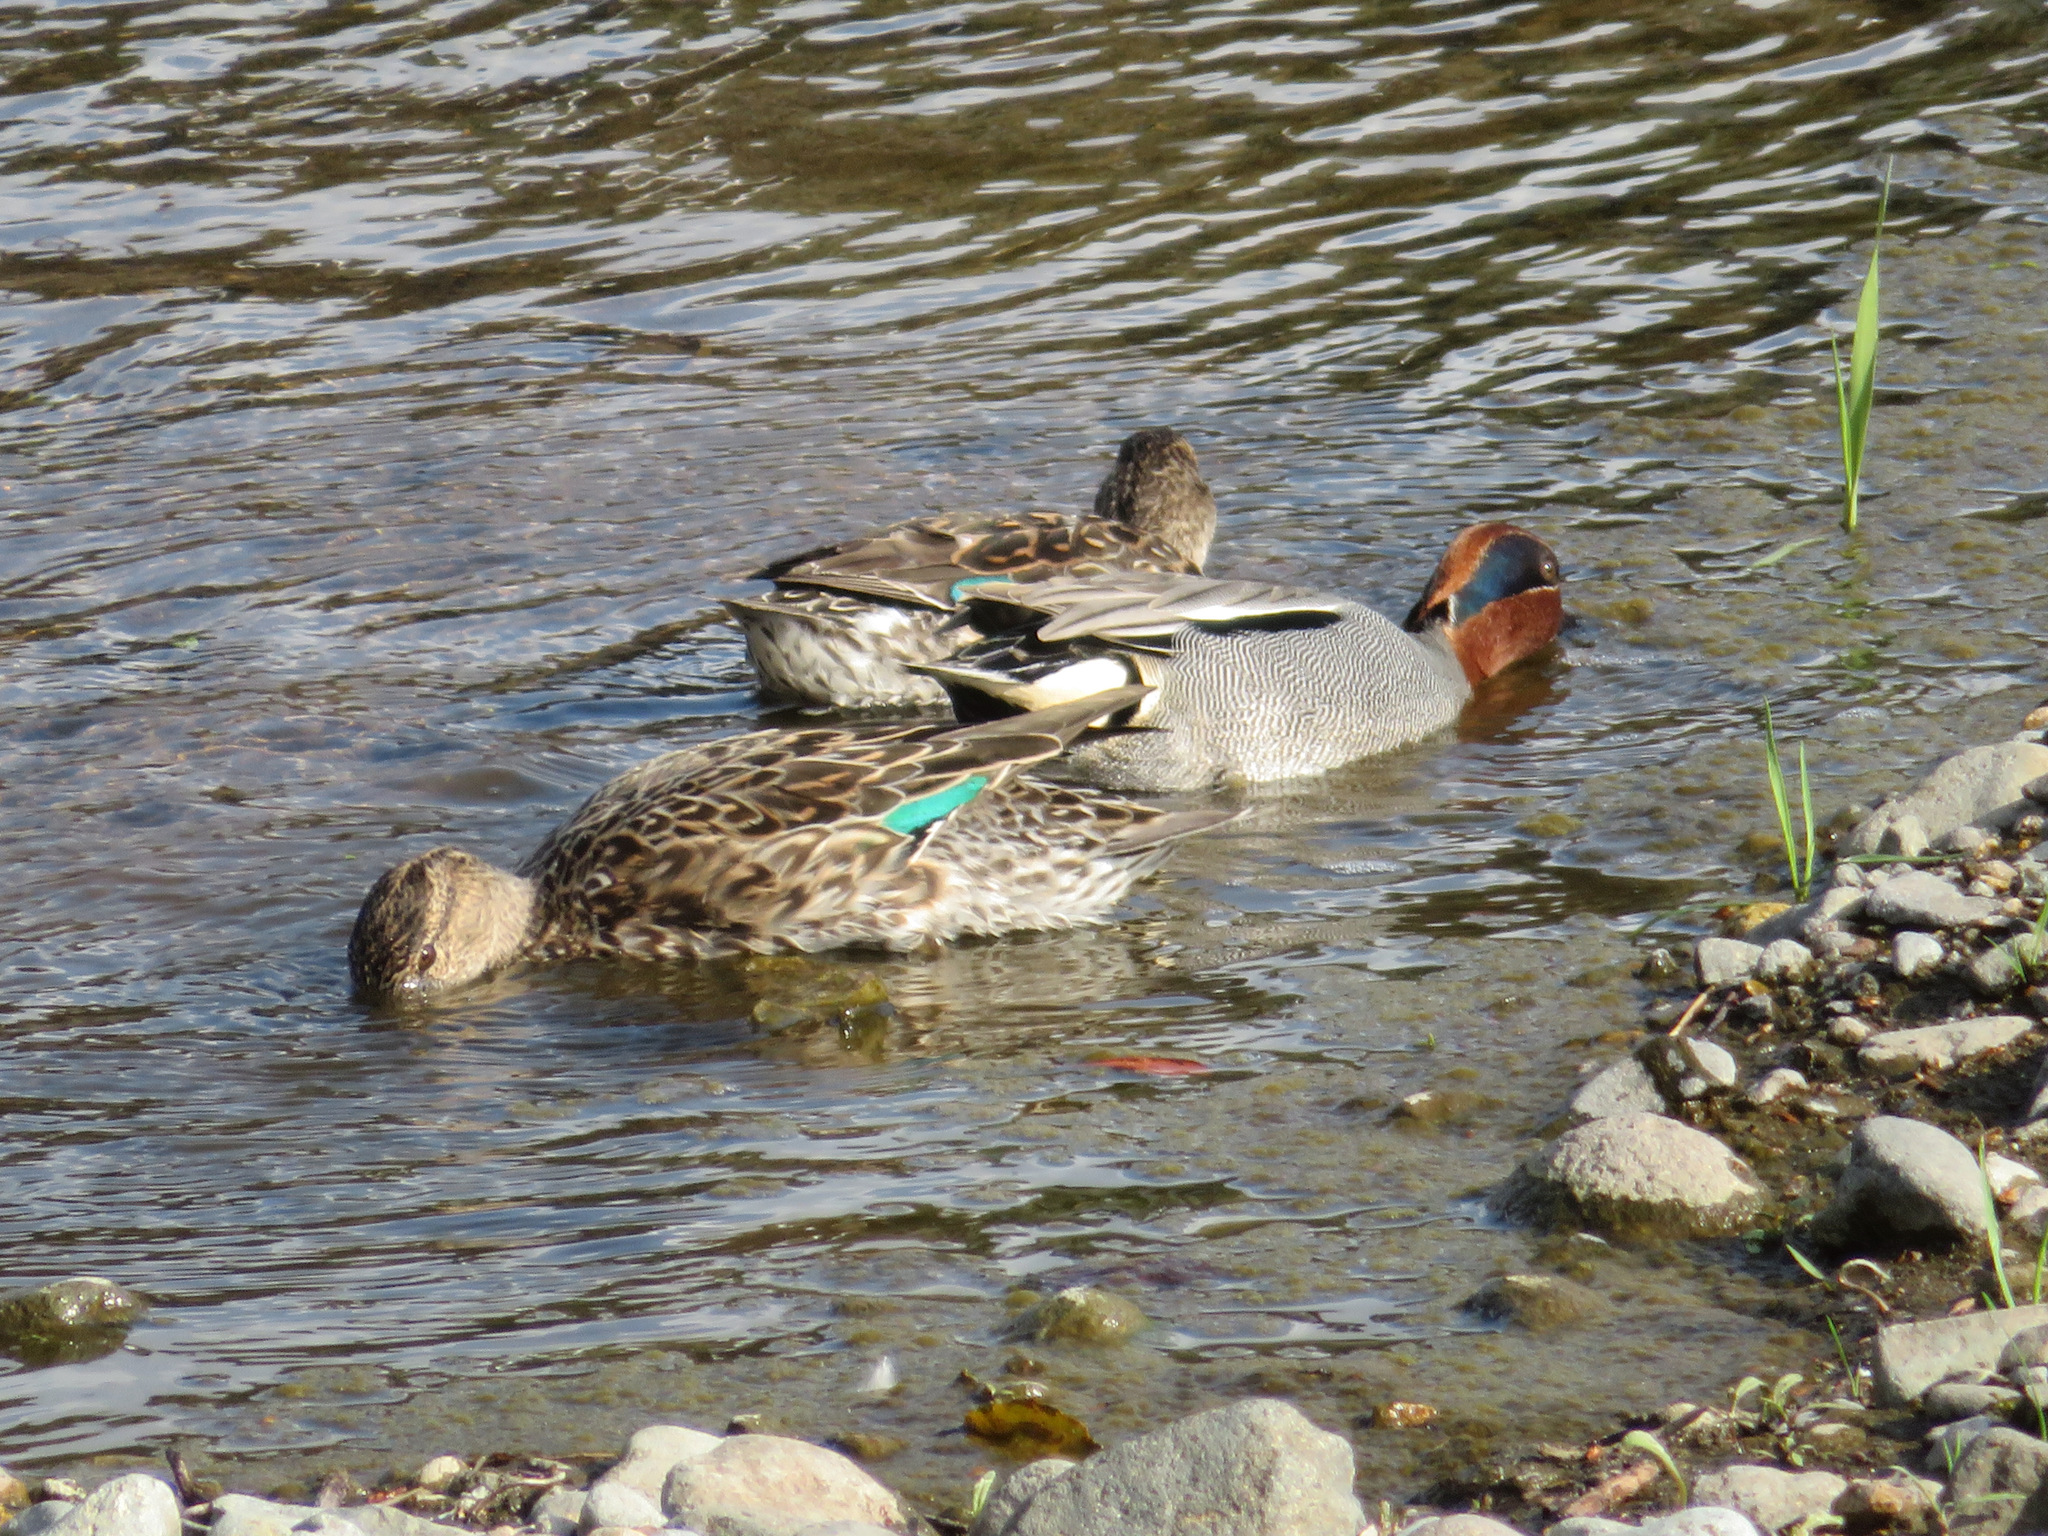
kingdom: Animalia
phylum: Chordata
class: Aves
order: Anseriformes
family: Anatidae
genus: Anas
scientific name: Anas crecca
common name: Eurasian teal
